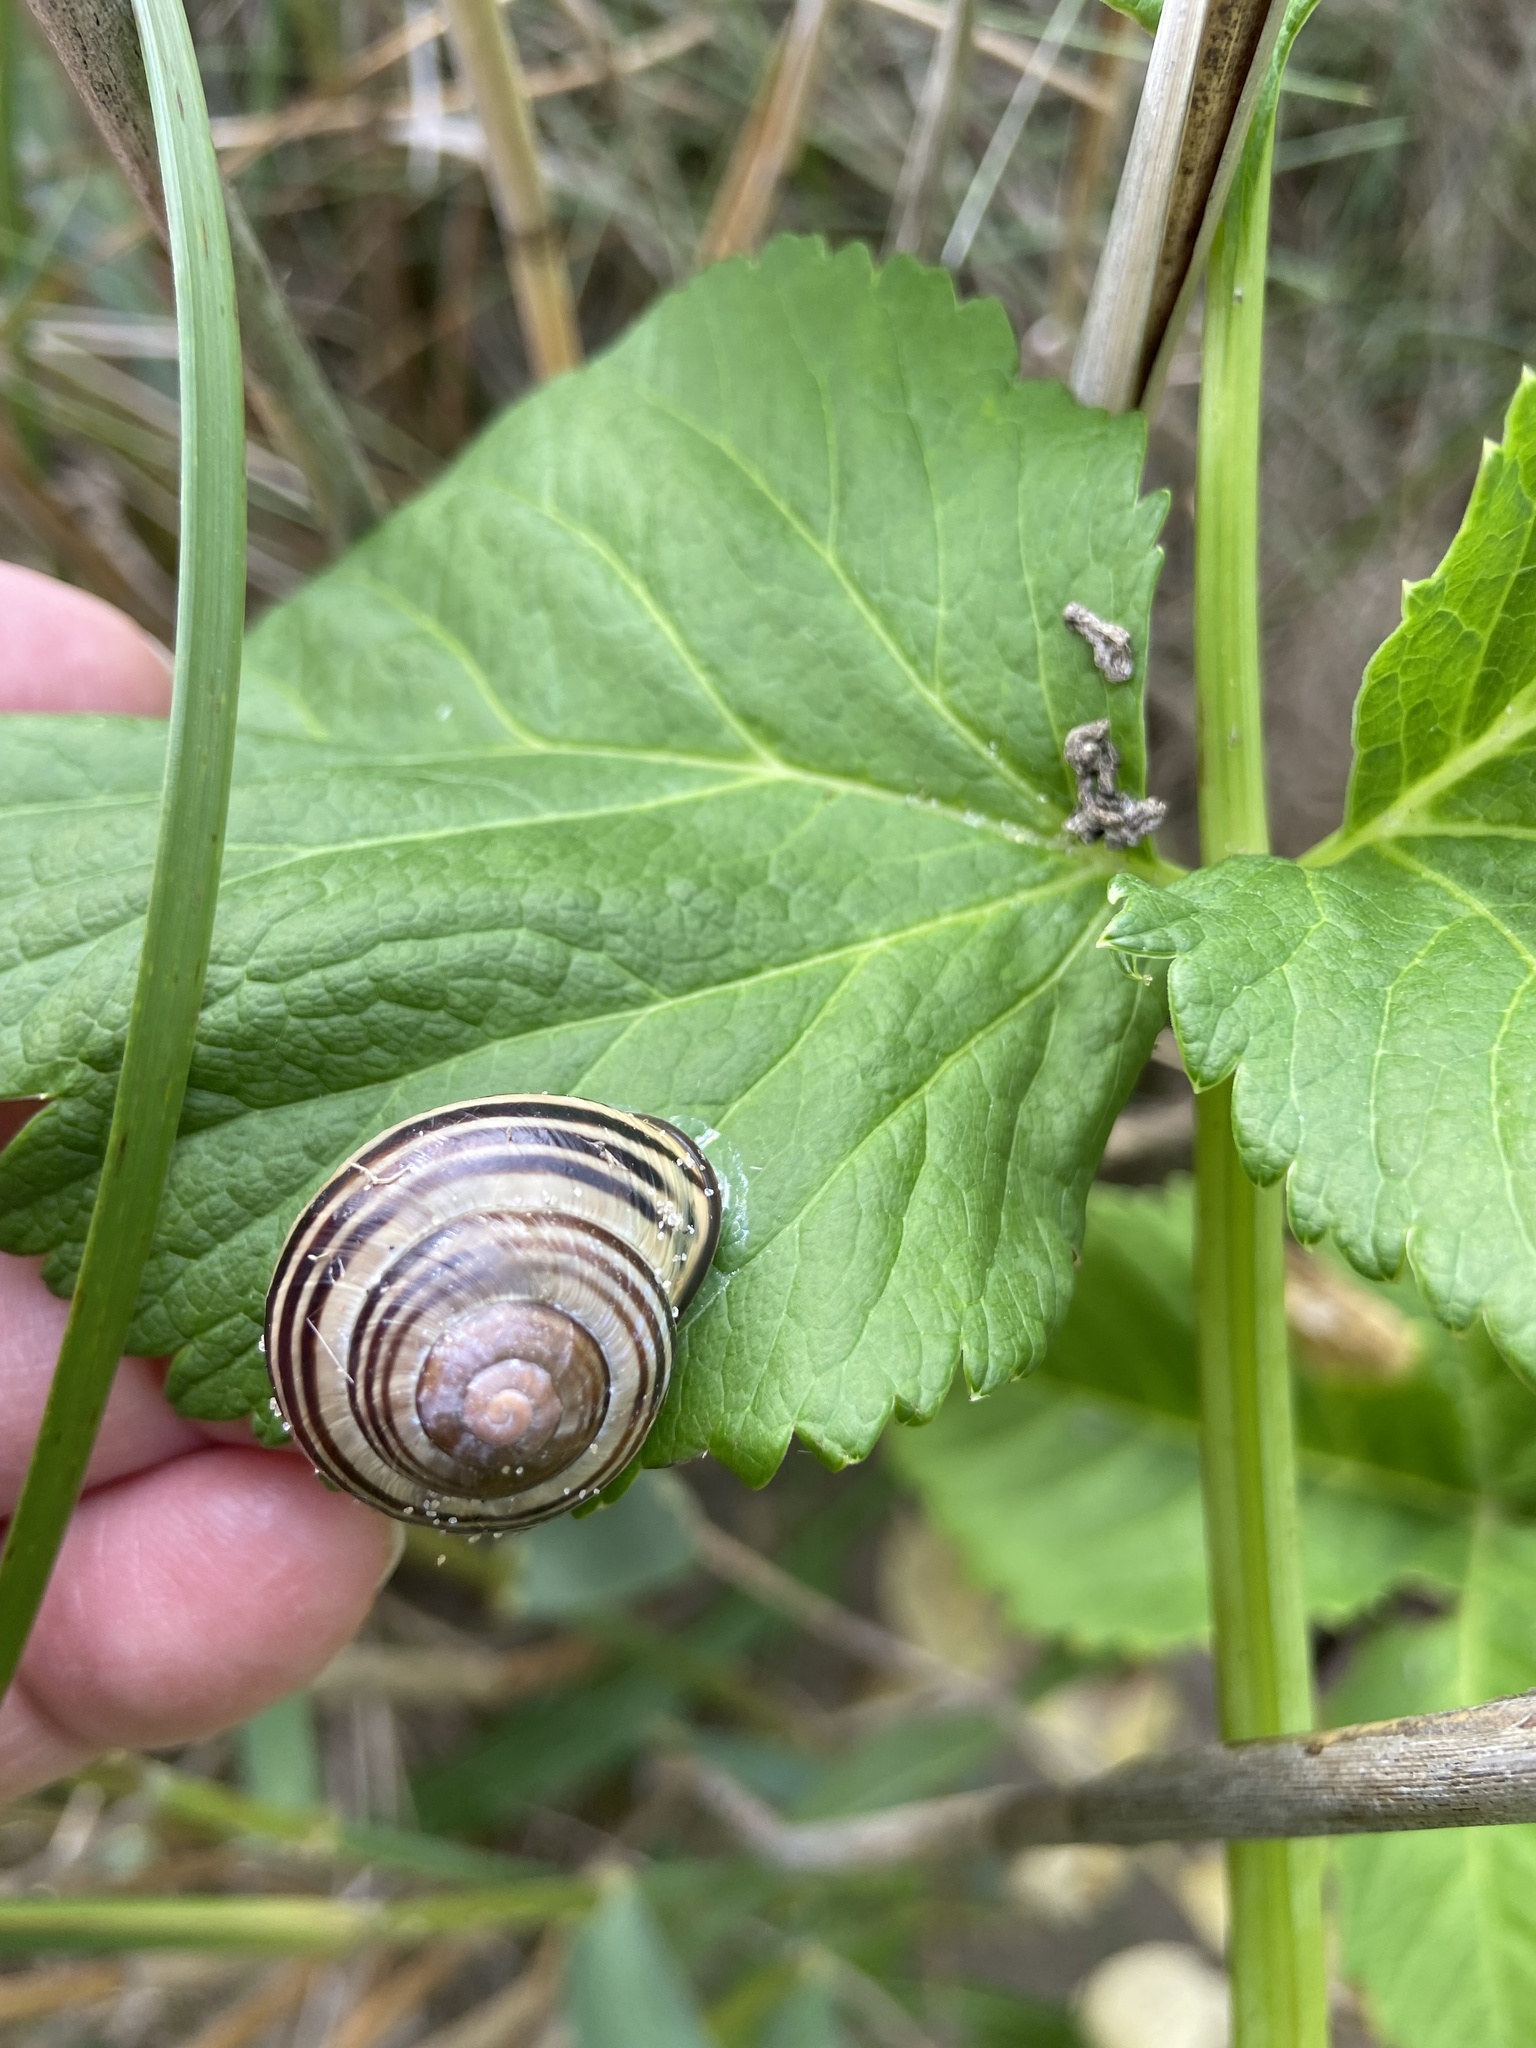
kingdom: Animalia
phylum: Mollusca
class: Gastropoda
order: Stylommatophora
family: Helicidae
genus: Cepaea
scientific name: Cepaea nemoralis
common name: Grovesnail
